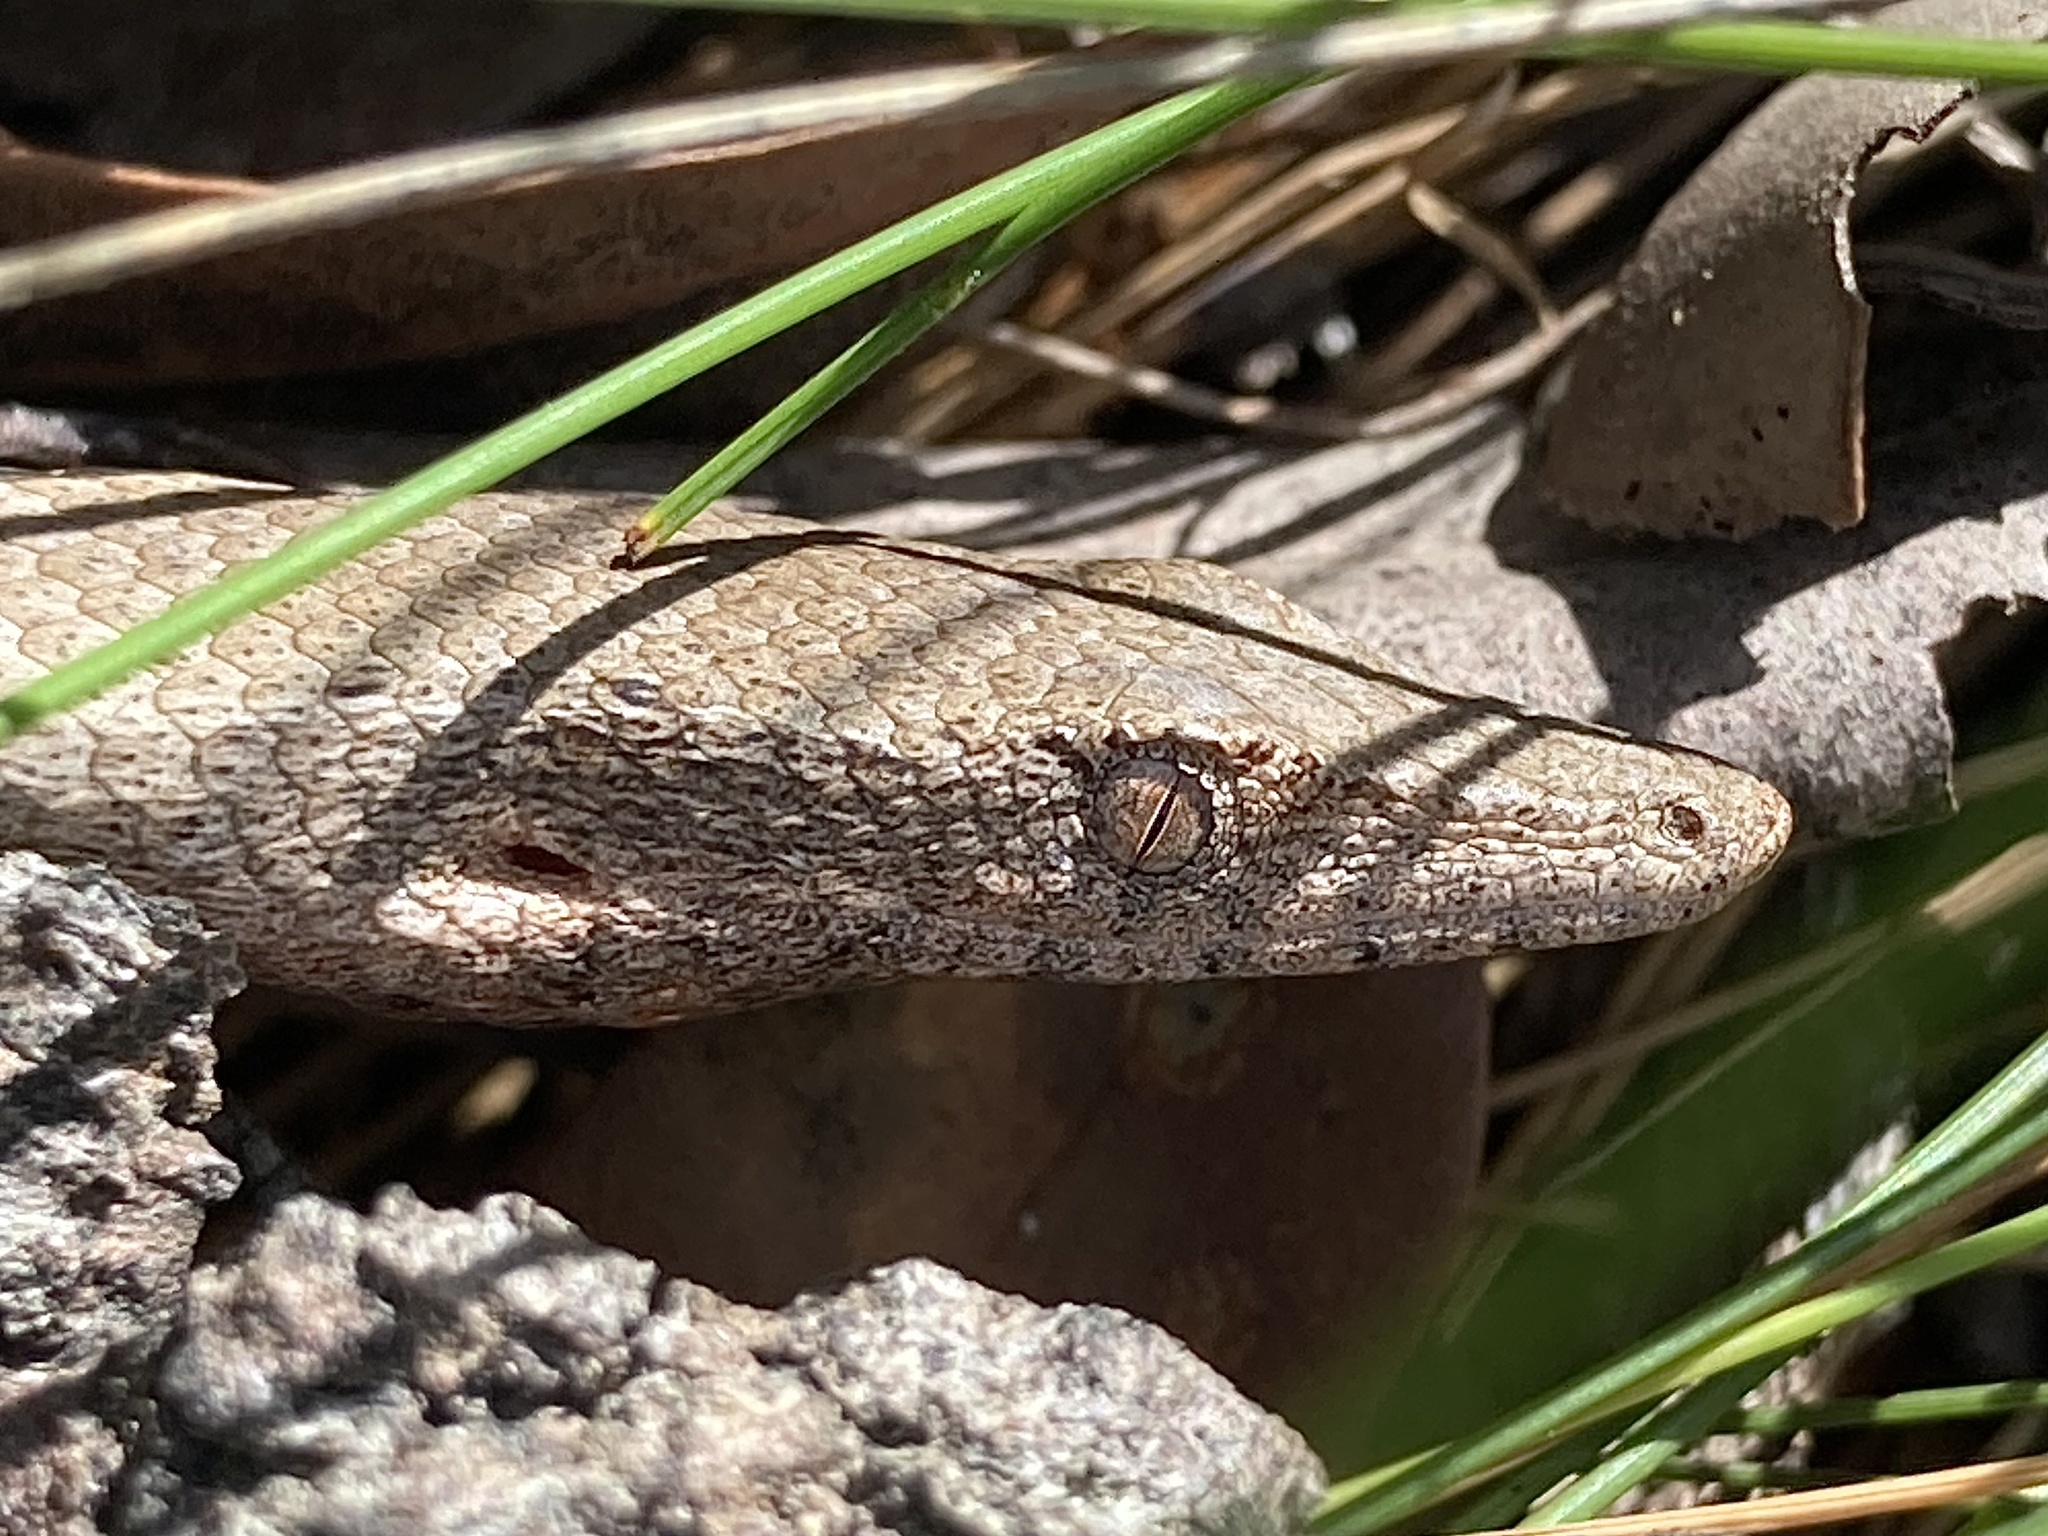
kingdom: Animalia
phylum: Chordata
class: Squamata
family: Pygopodidae
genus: Lialis
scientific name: Lialis burtonis
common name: Burton's legless lizard
